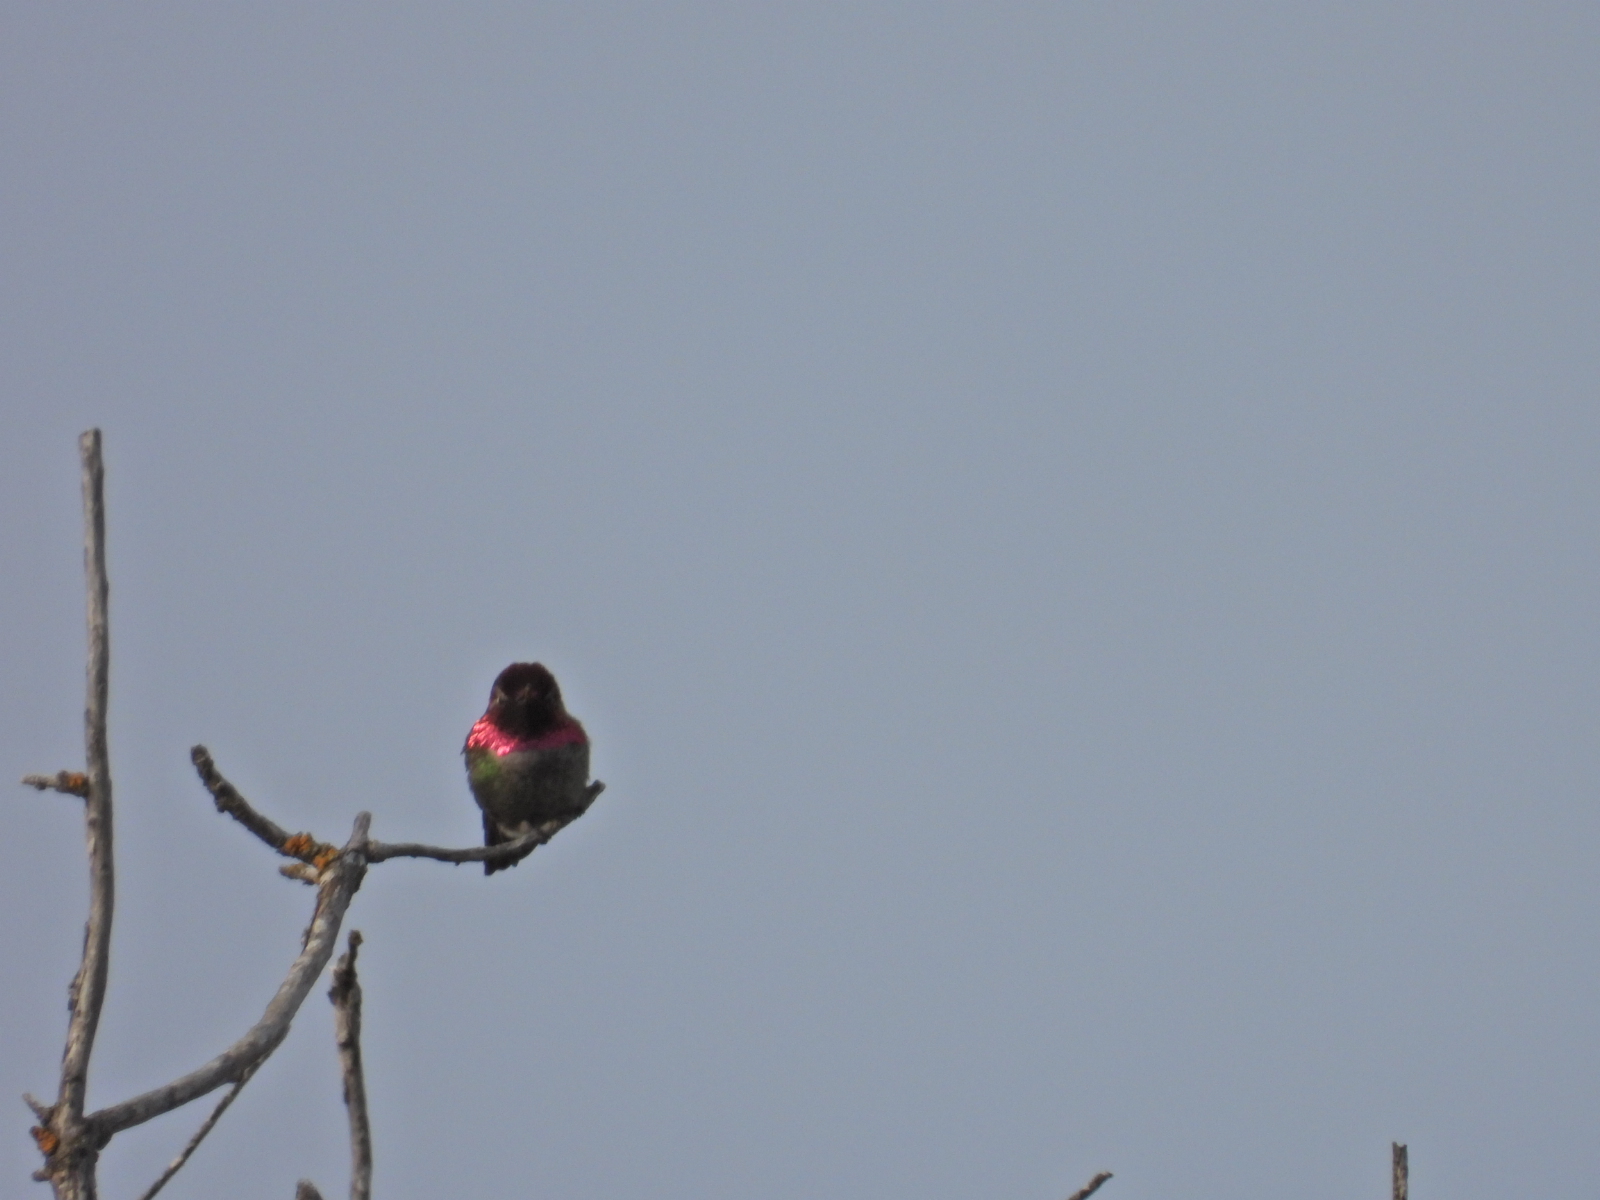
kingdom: Animalia
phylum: Chordata
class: Aves
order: Apodiformes
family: Trochilidae
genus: Calypte
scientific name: Calypte anna
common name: Anna's hummingbird
